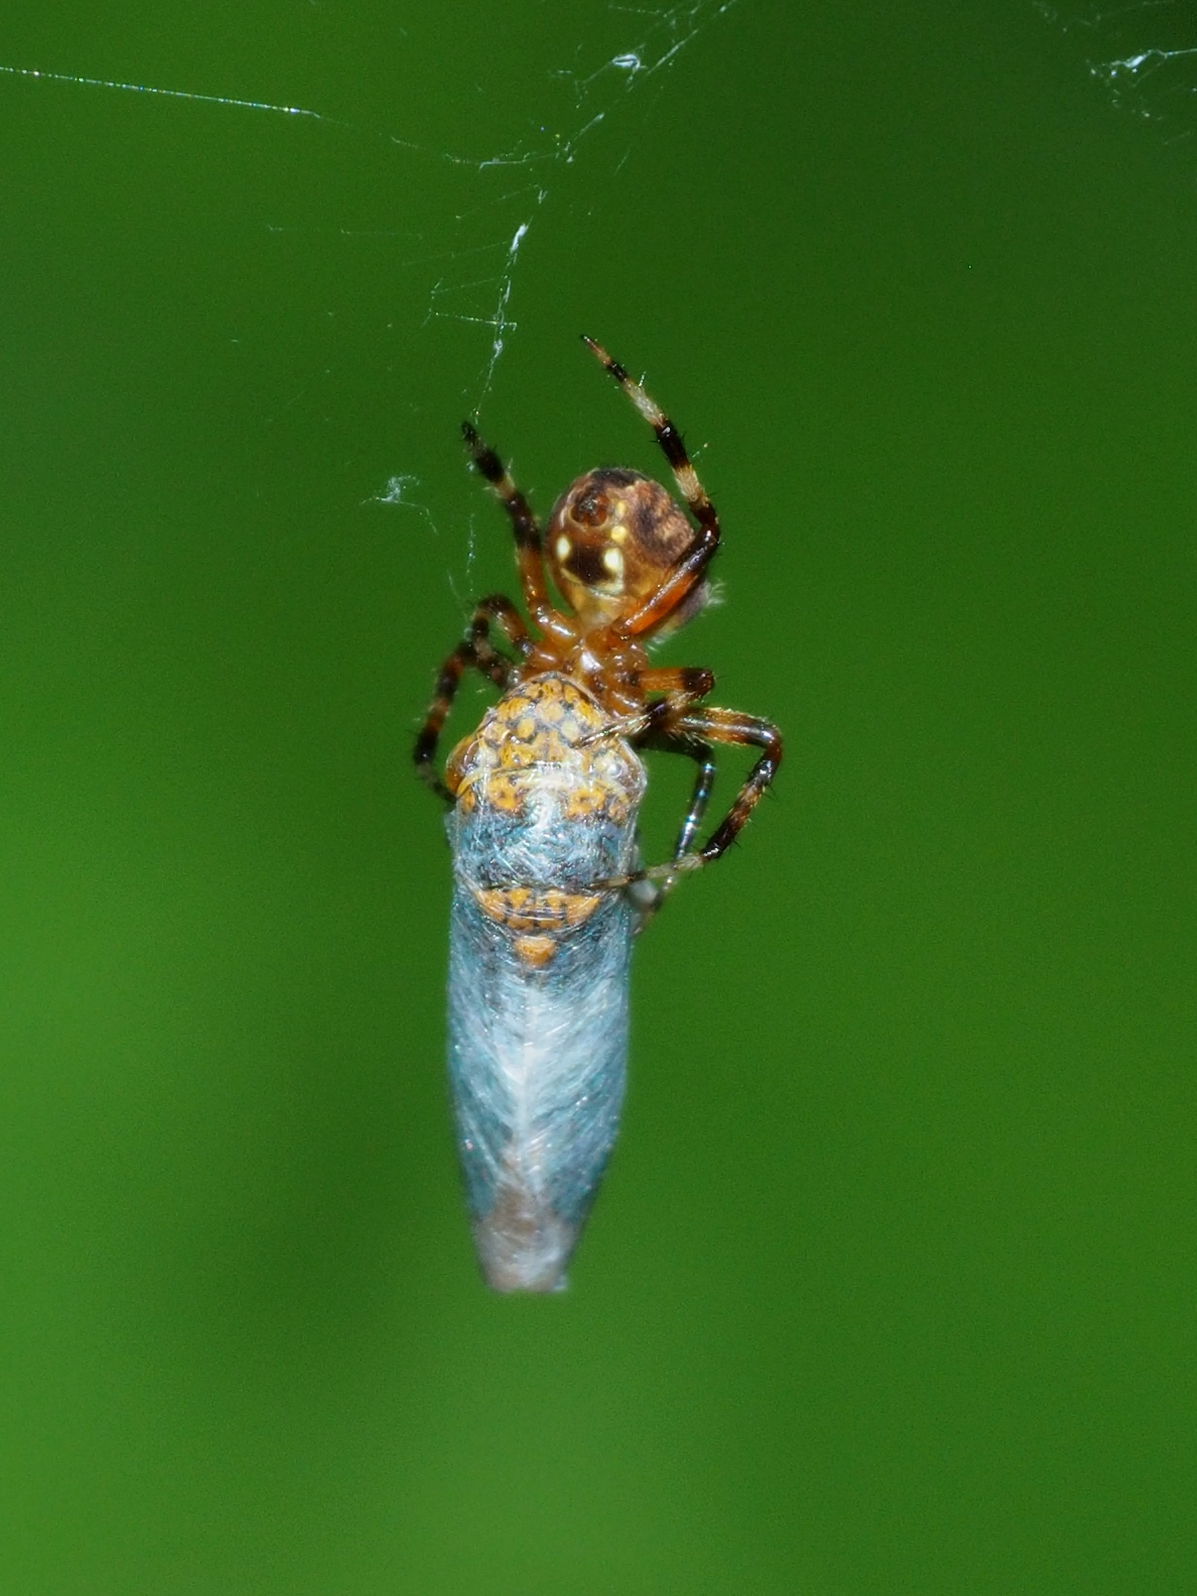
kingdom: Animalia
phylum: Arthropoda
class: Insecta
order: Hemiptera
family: Cicadellidae
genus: Oncometopia
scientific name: Oncometopia orbona
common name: Broad-headed sharpshooter
